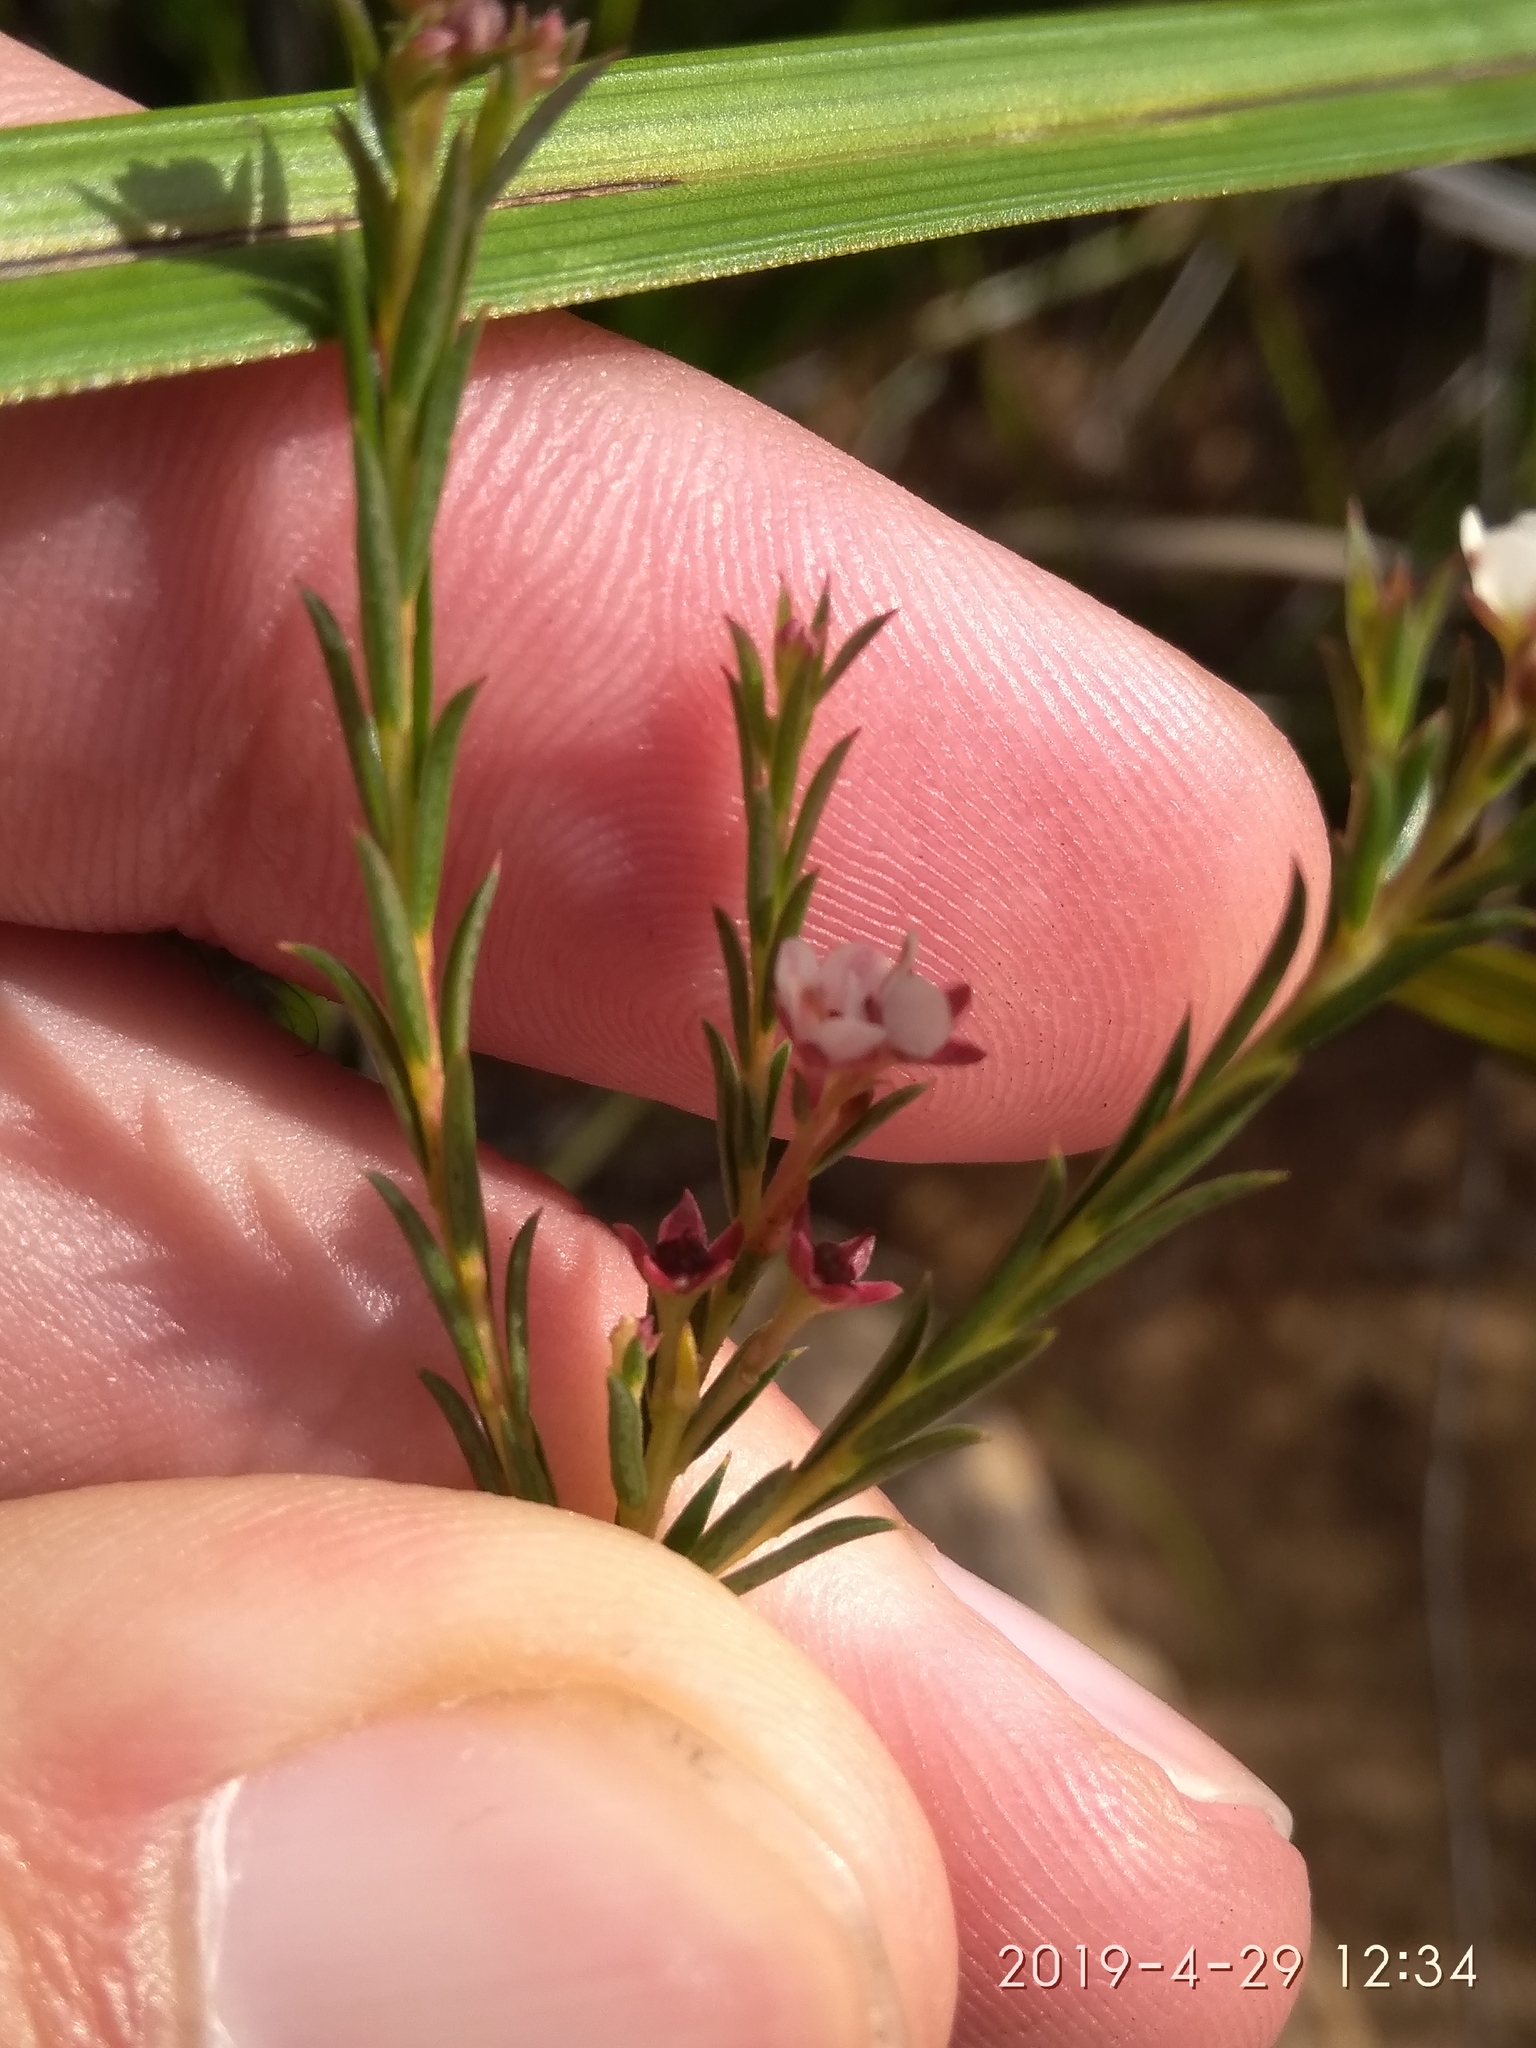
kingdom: Plantae
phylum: Tracheophyta
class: Magnoliopsida
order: Sapindales
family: Rutaceae
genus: Diosma
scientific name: Diosma hirsuta
